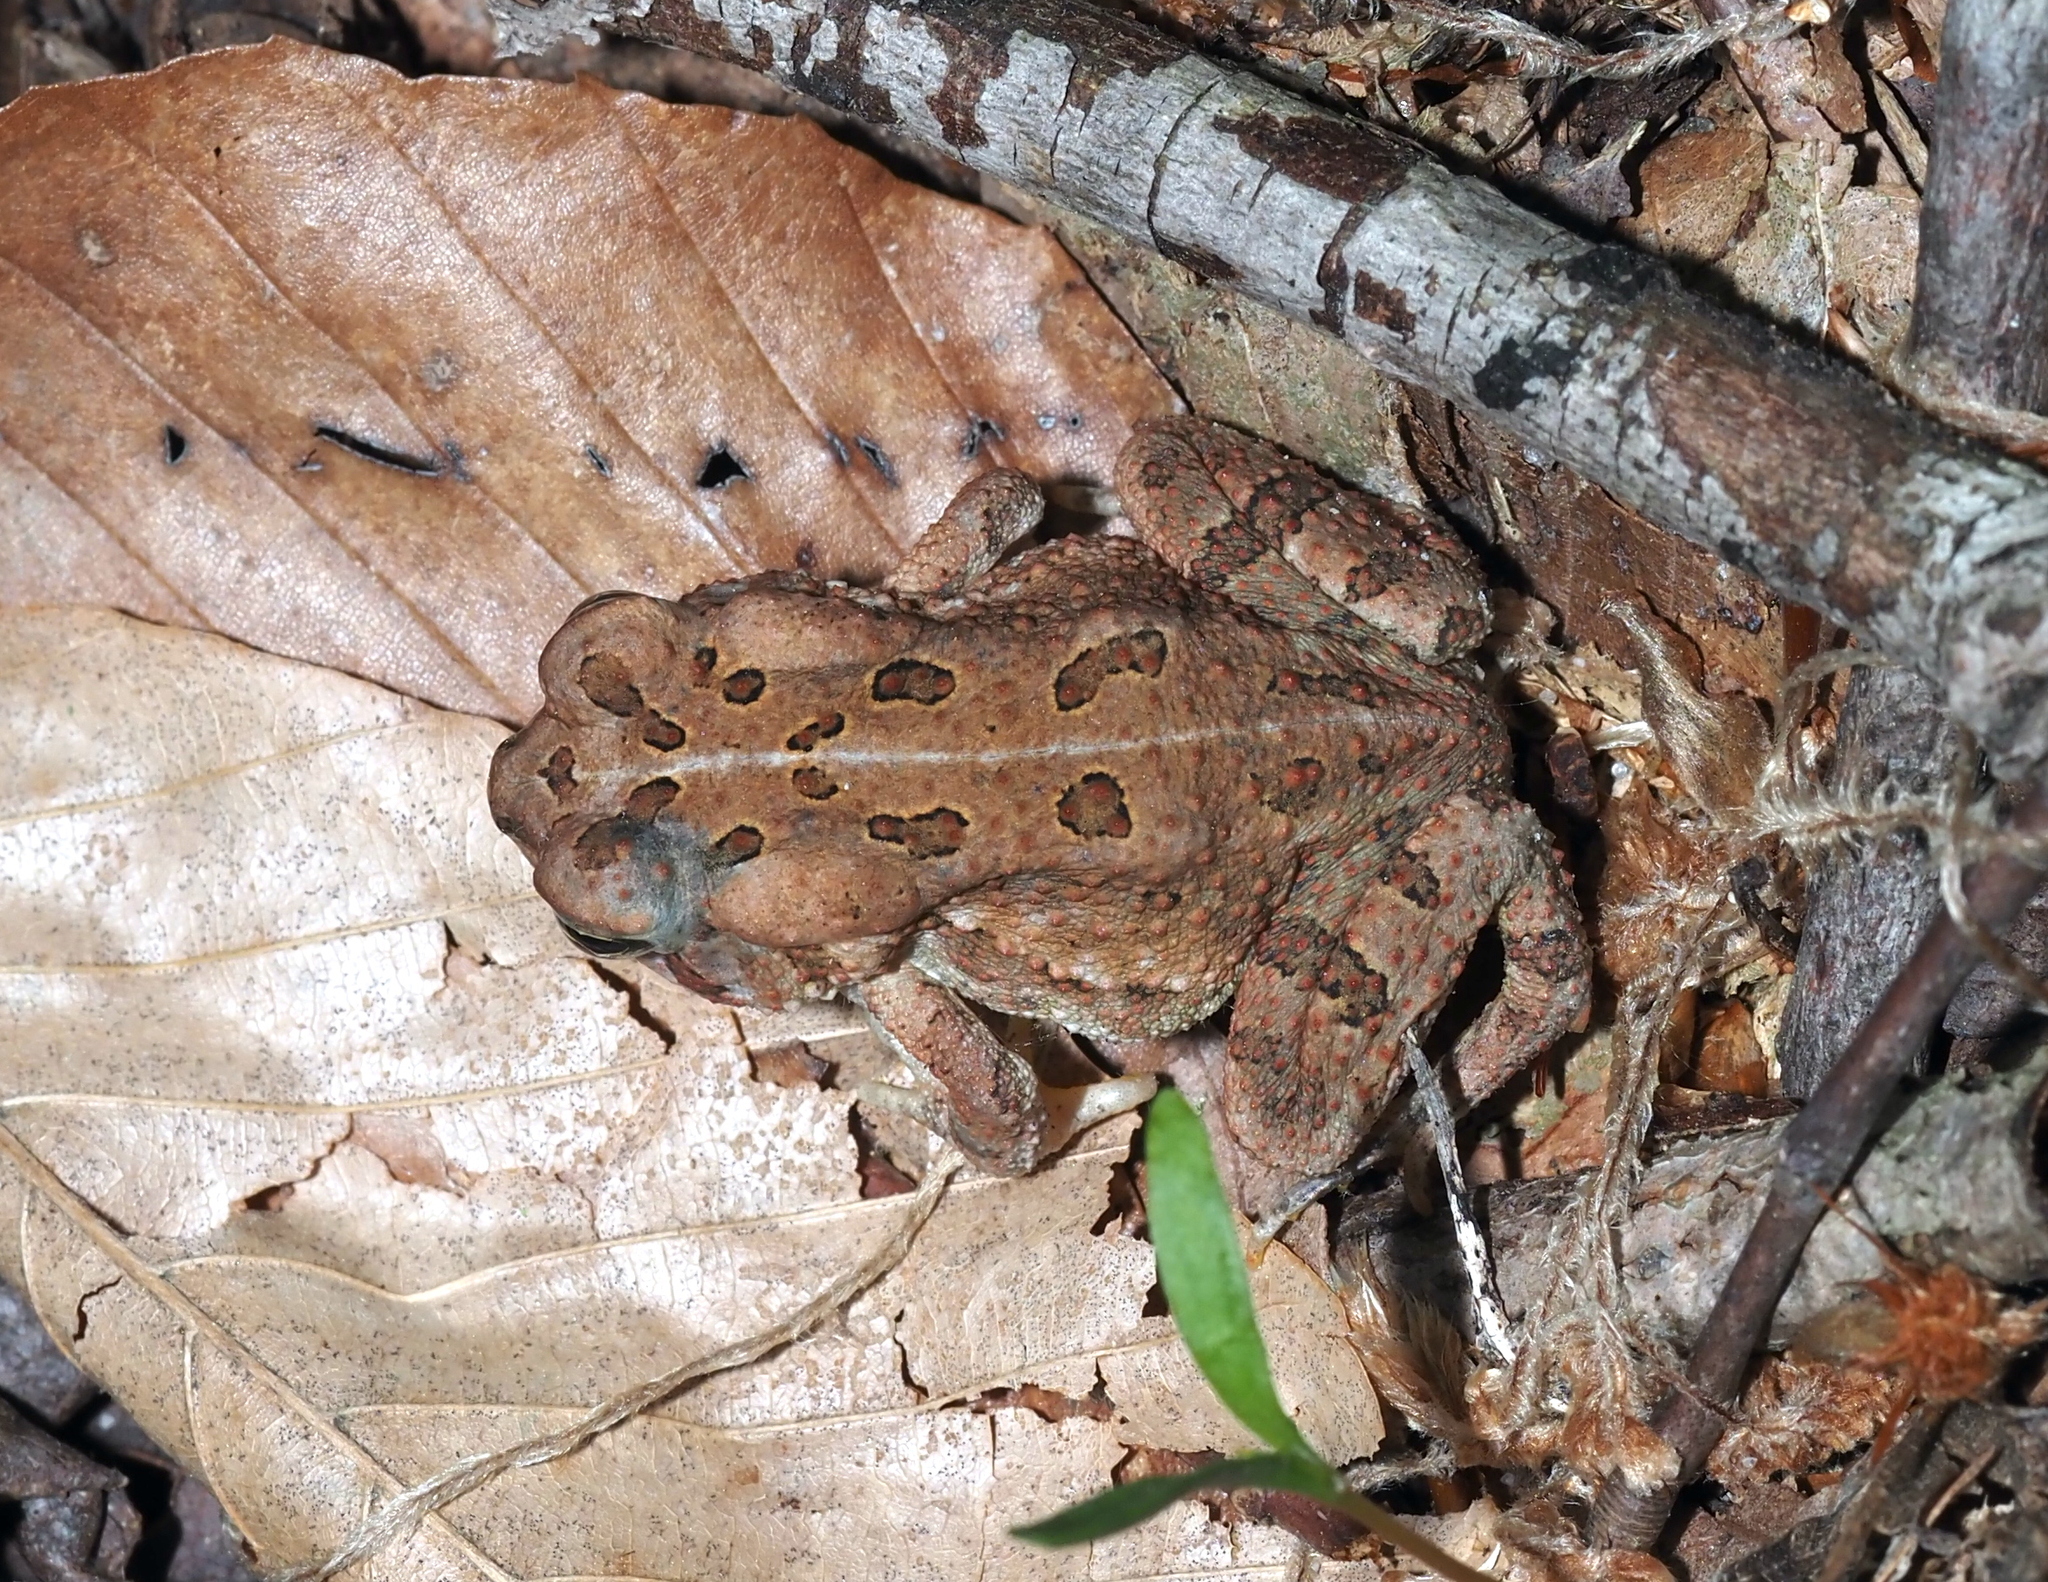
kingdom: Animalia
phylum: Chordata
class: Amphibia
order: Anura
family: Bufonidae
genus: Anaxyrus
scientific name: Anaxyrus fowleri
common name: Fowler's toad
